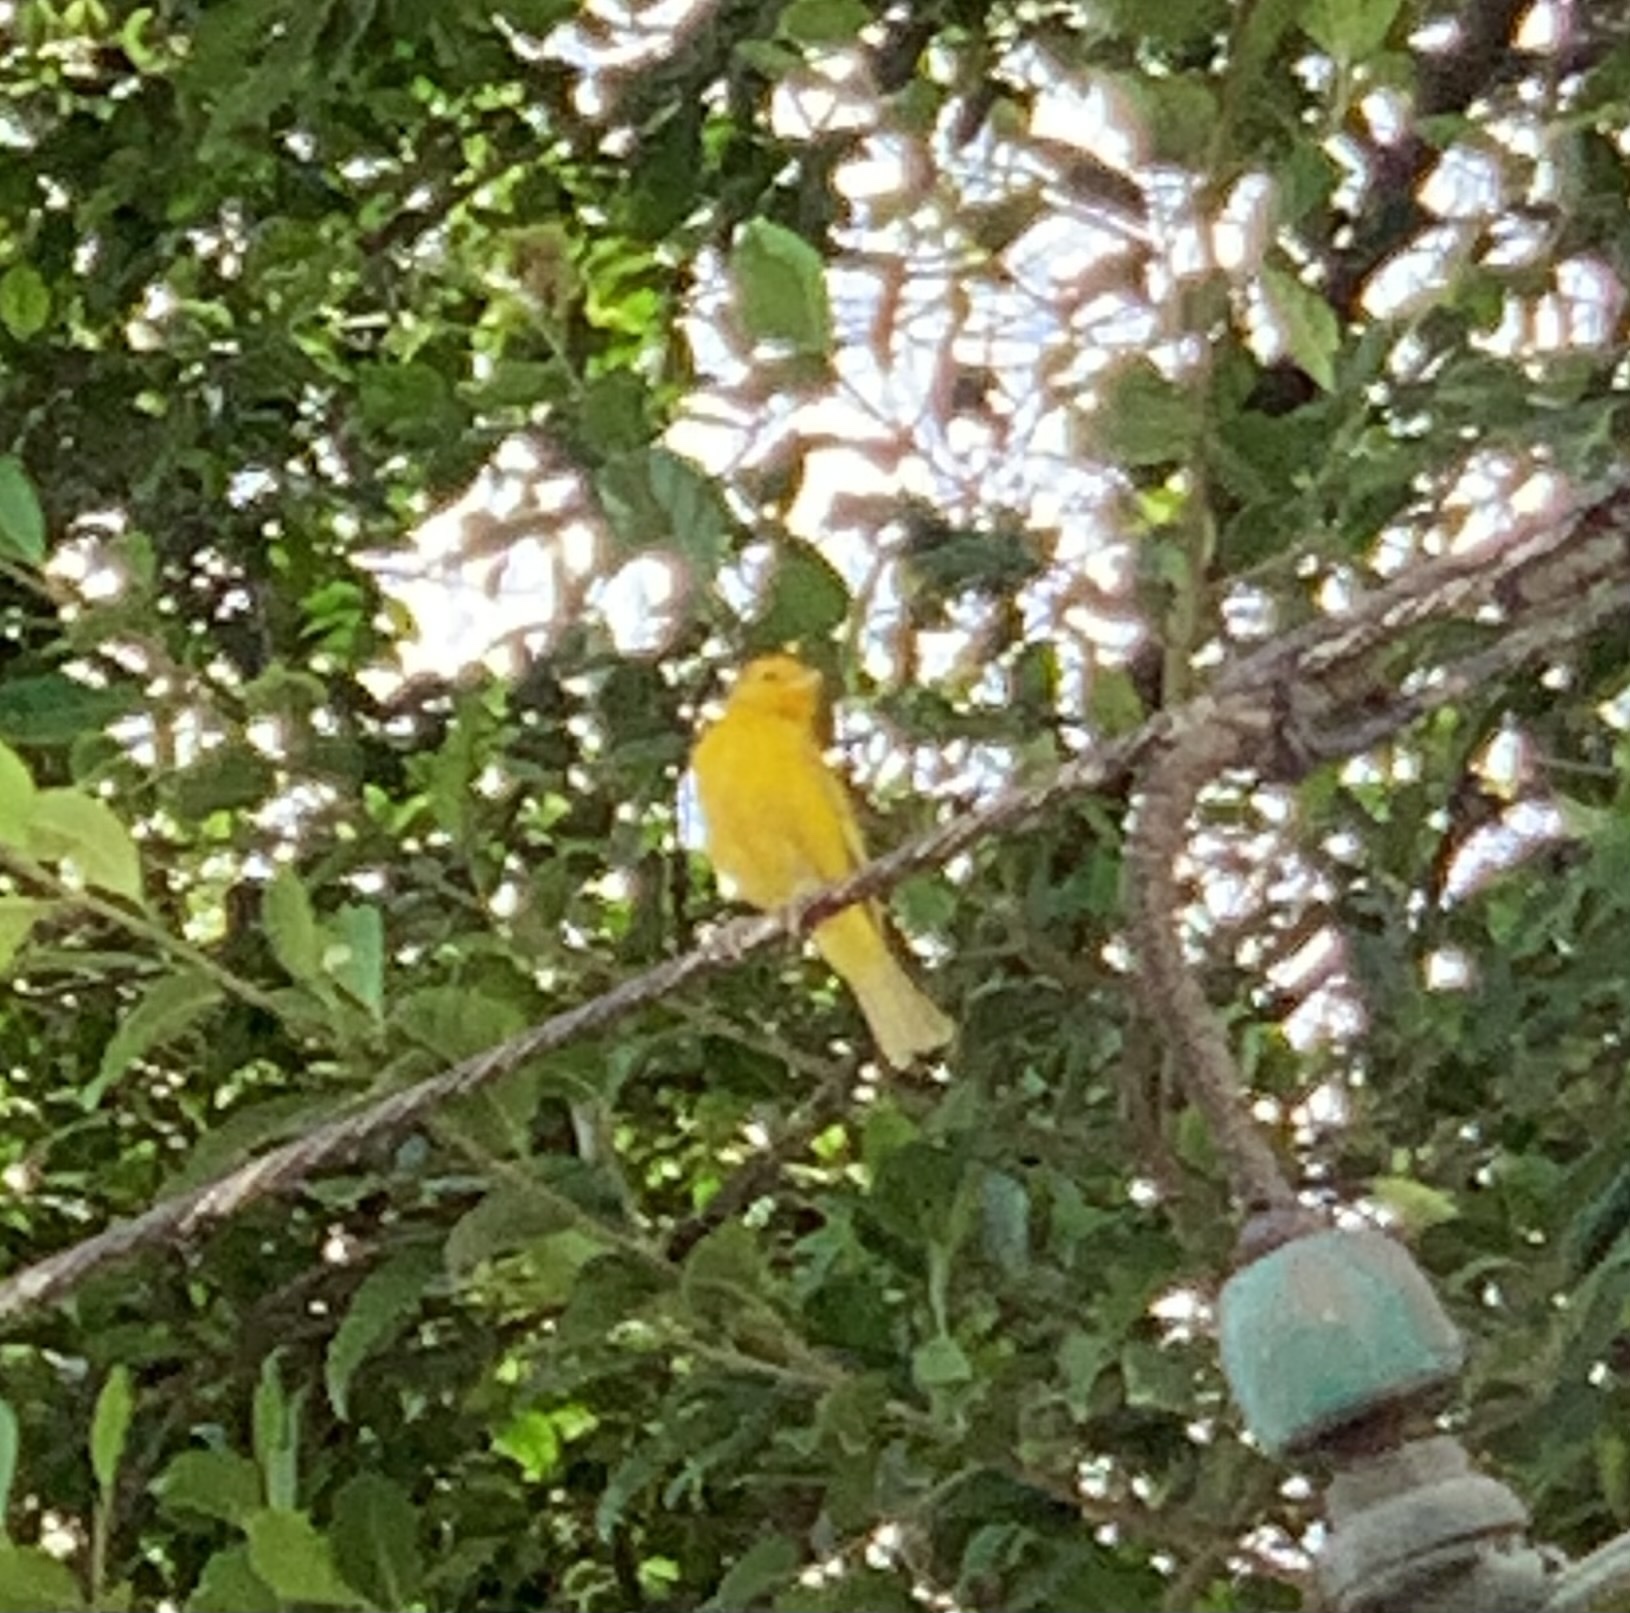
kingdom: Animalia
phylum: Chordata
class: Aves
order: Passeriformes
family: Thraupidae
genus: Sicalis
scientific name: Sicalis flaveola
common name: Saffron finch
